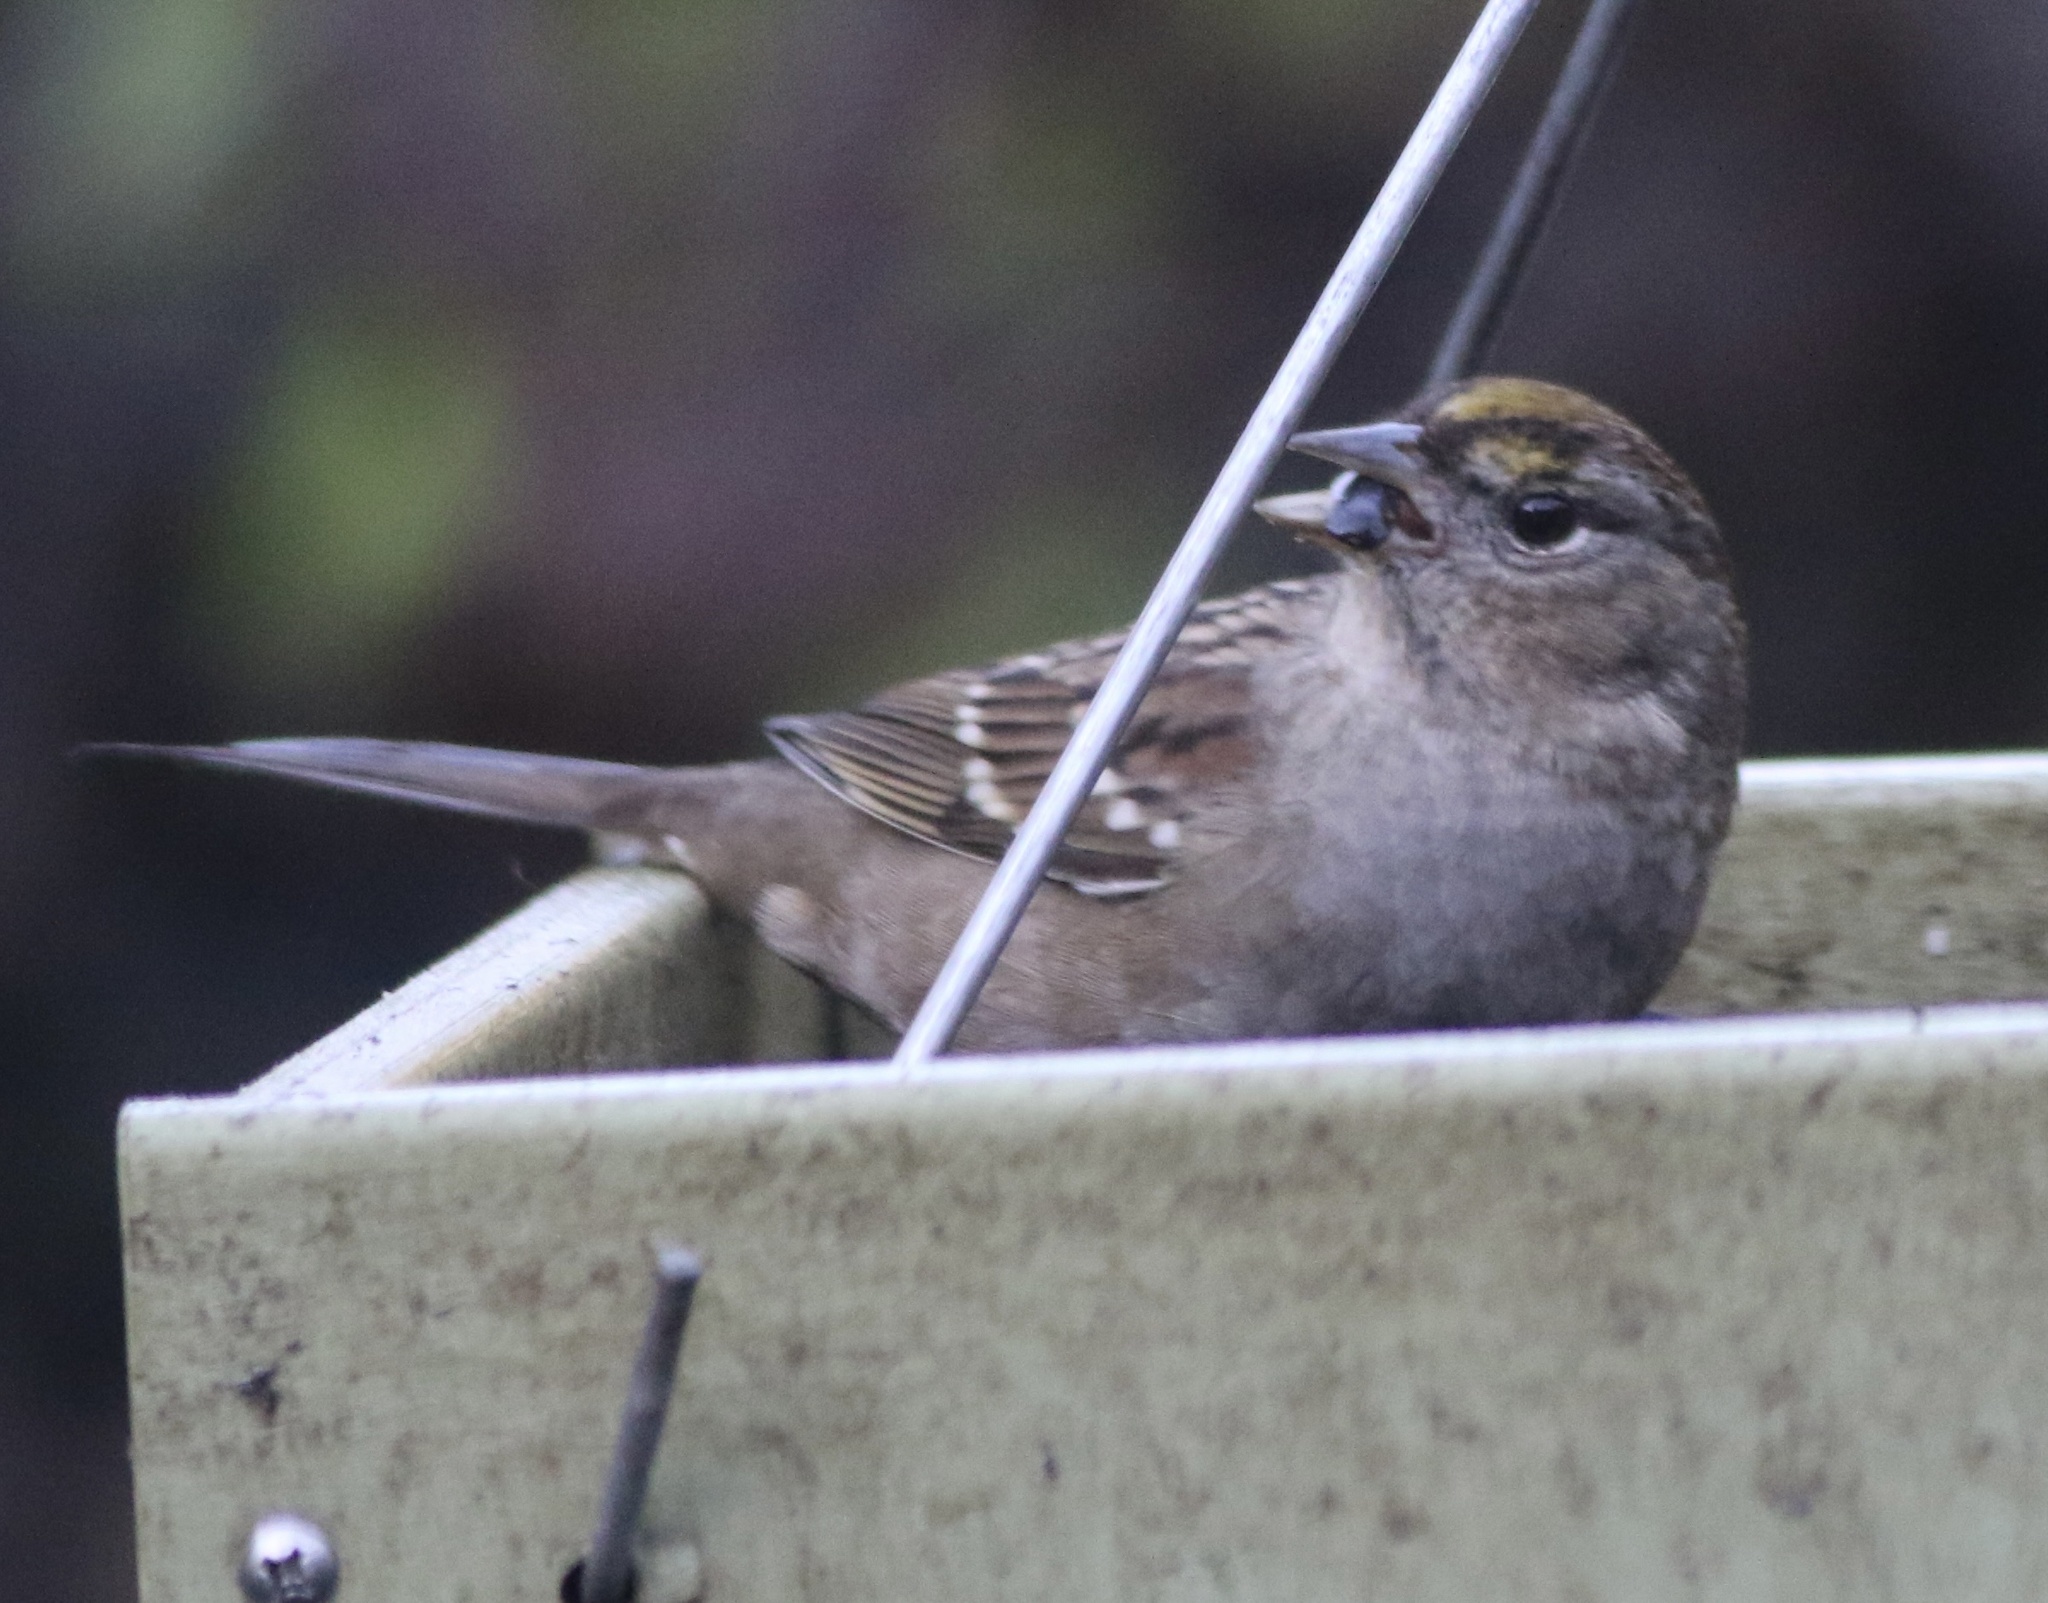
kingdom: Animalia
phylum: Chordata
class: Aves
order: Passeriformes
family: Passerellidae
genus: Zonotrichia
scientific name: Zonotrichia atricapilla
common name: Golden-crowned sparrow
